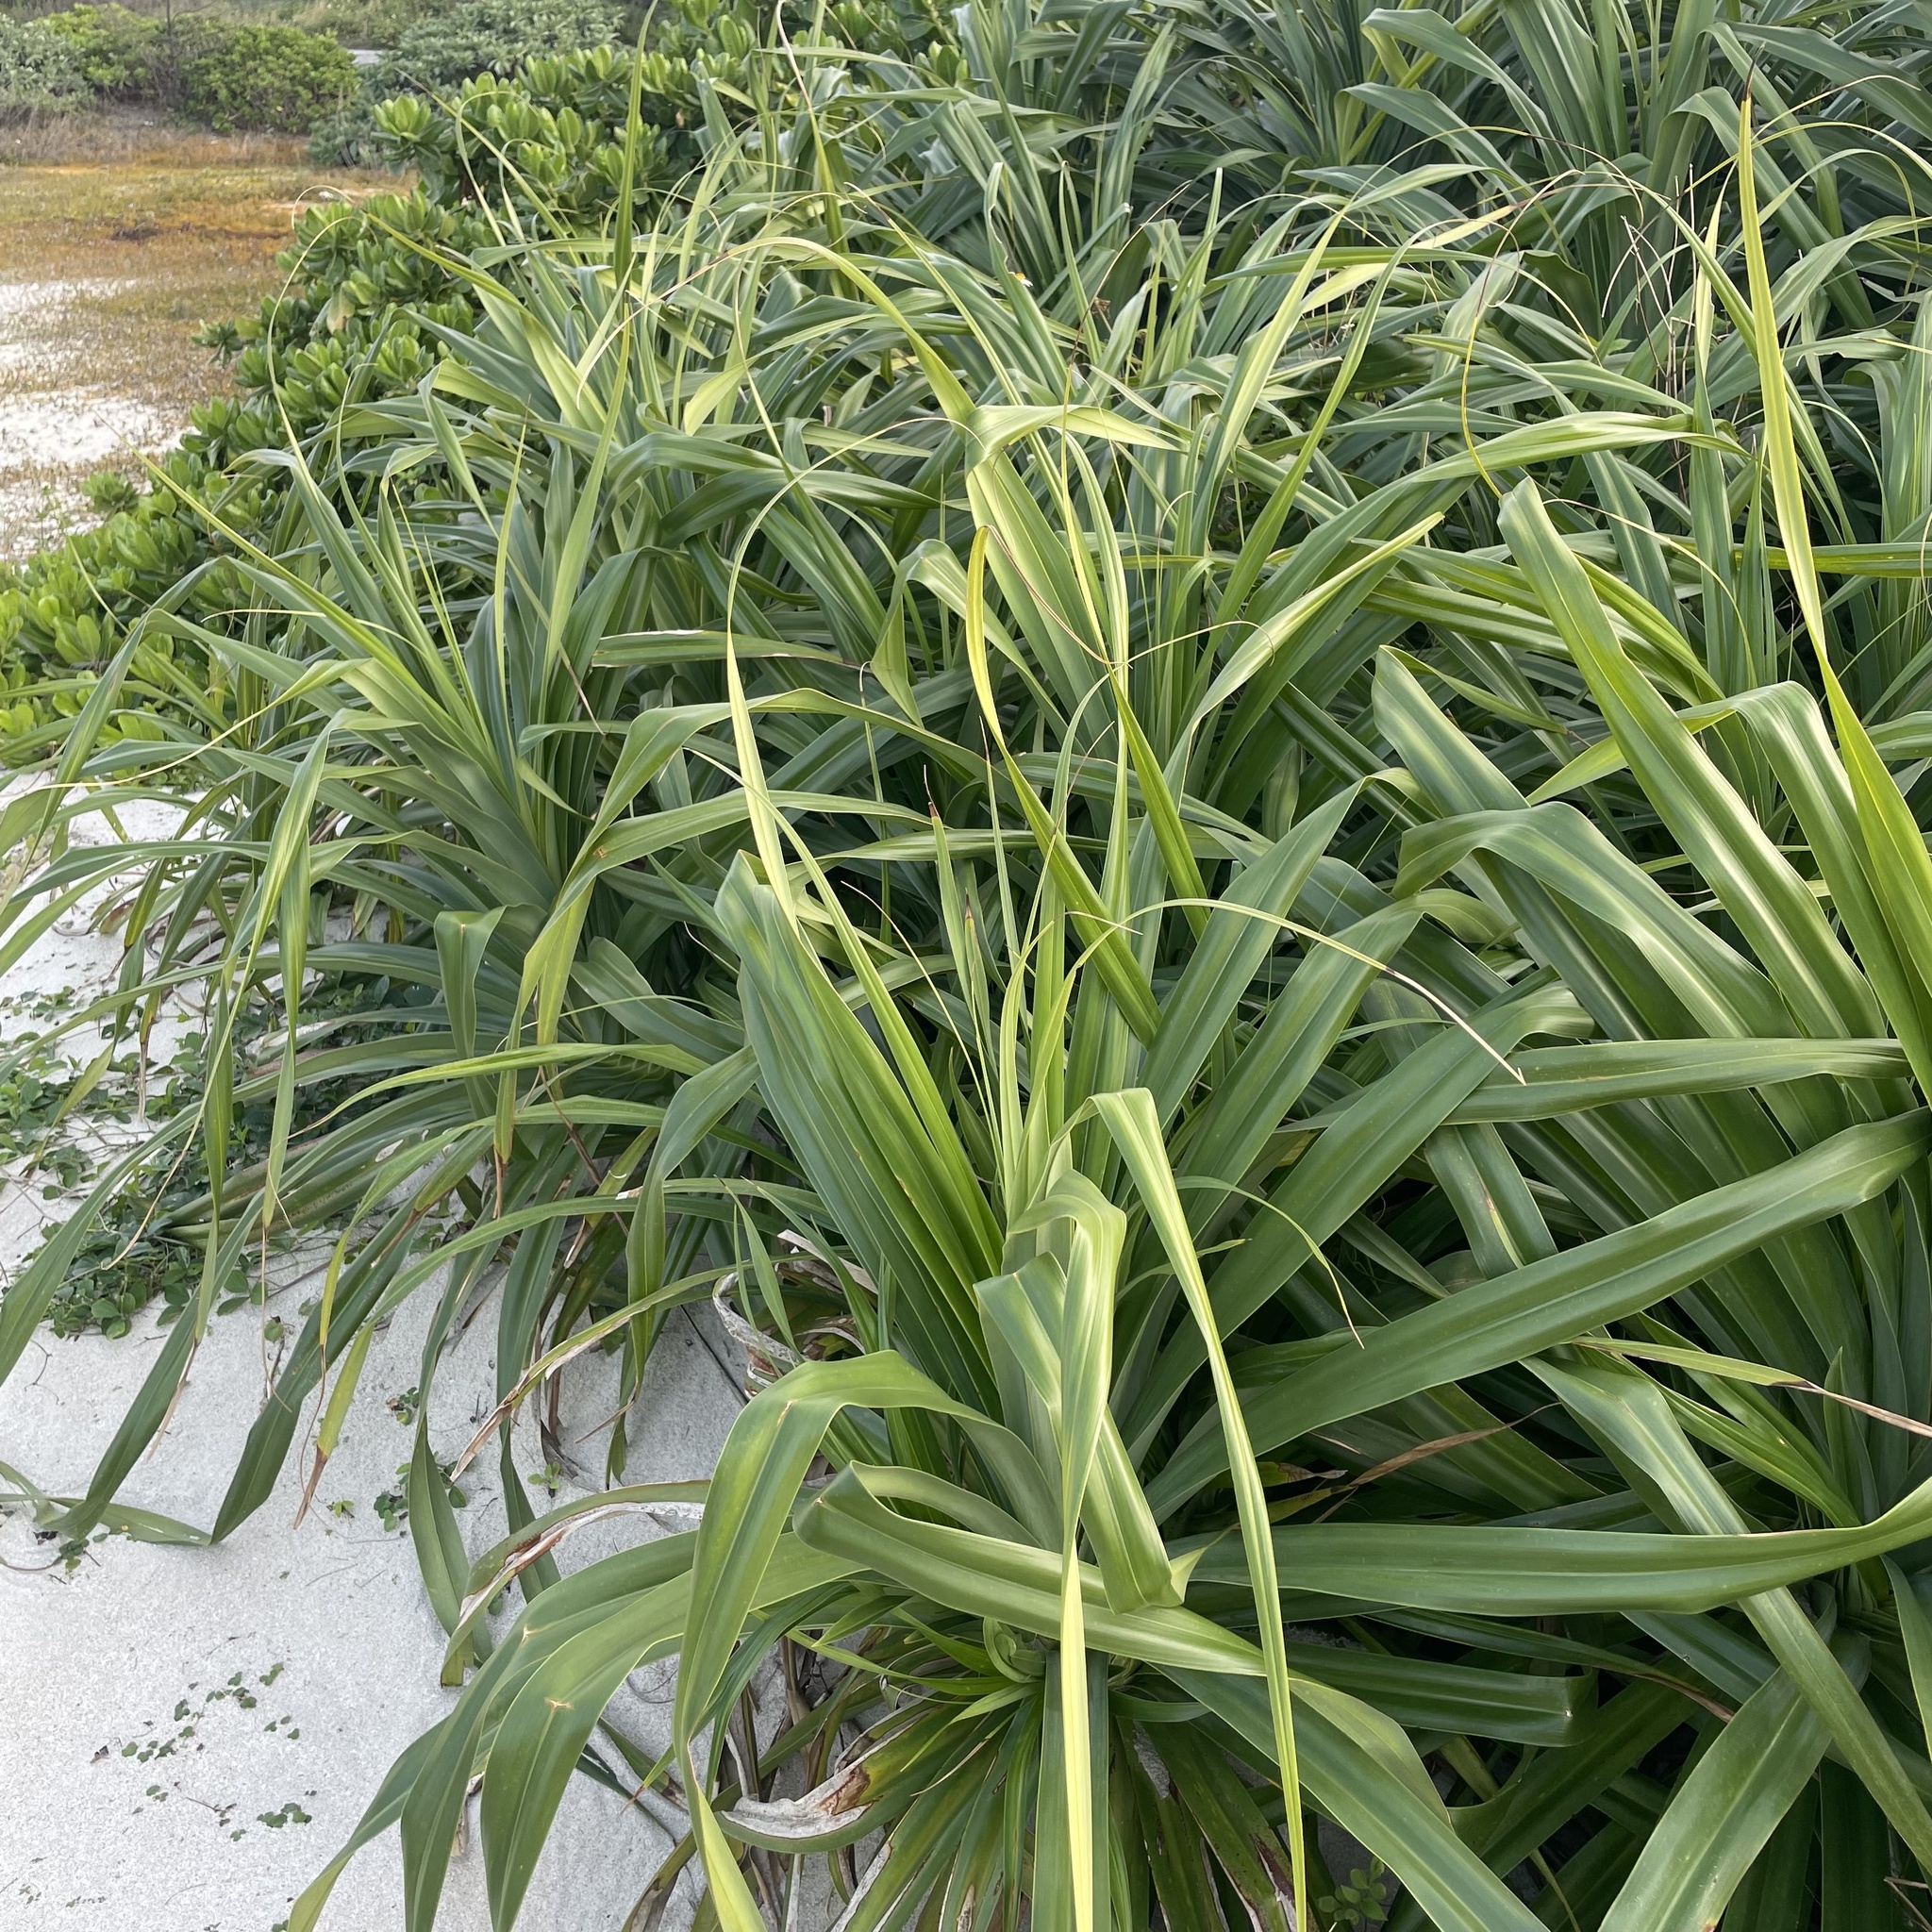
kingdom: Plantae
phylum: Tracheophyta
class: Liliopsida
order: Pandanales
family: Pandanaceae
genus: Pandanus
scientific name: Pandanus odorifer
